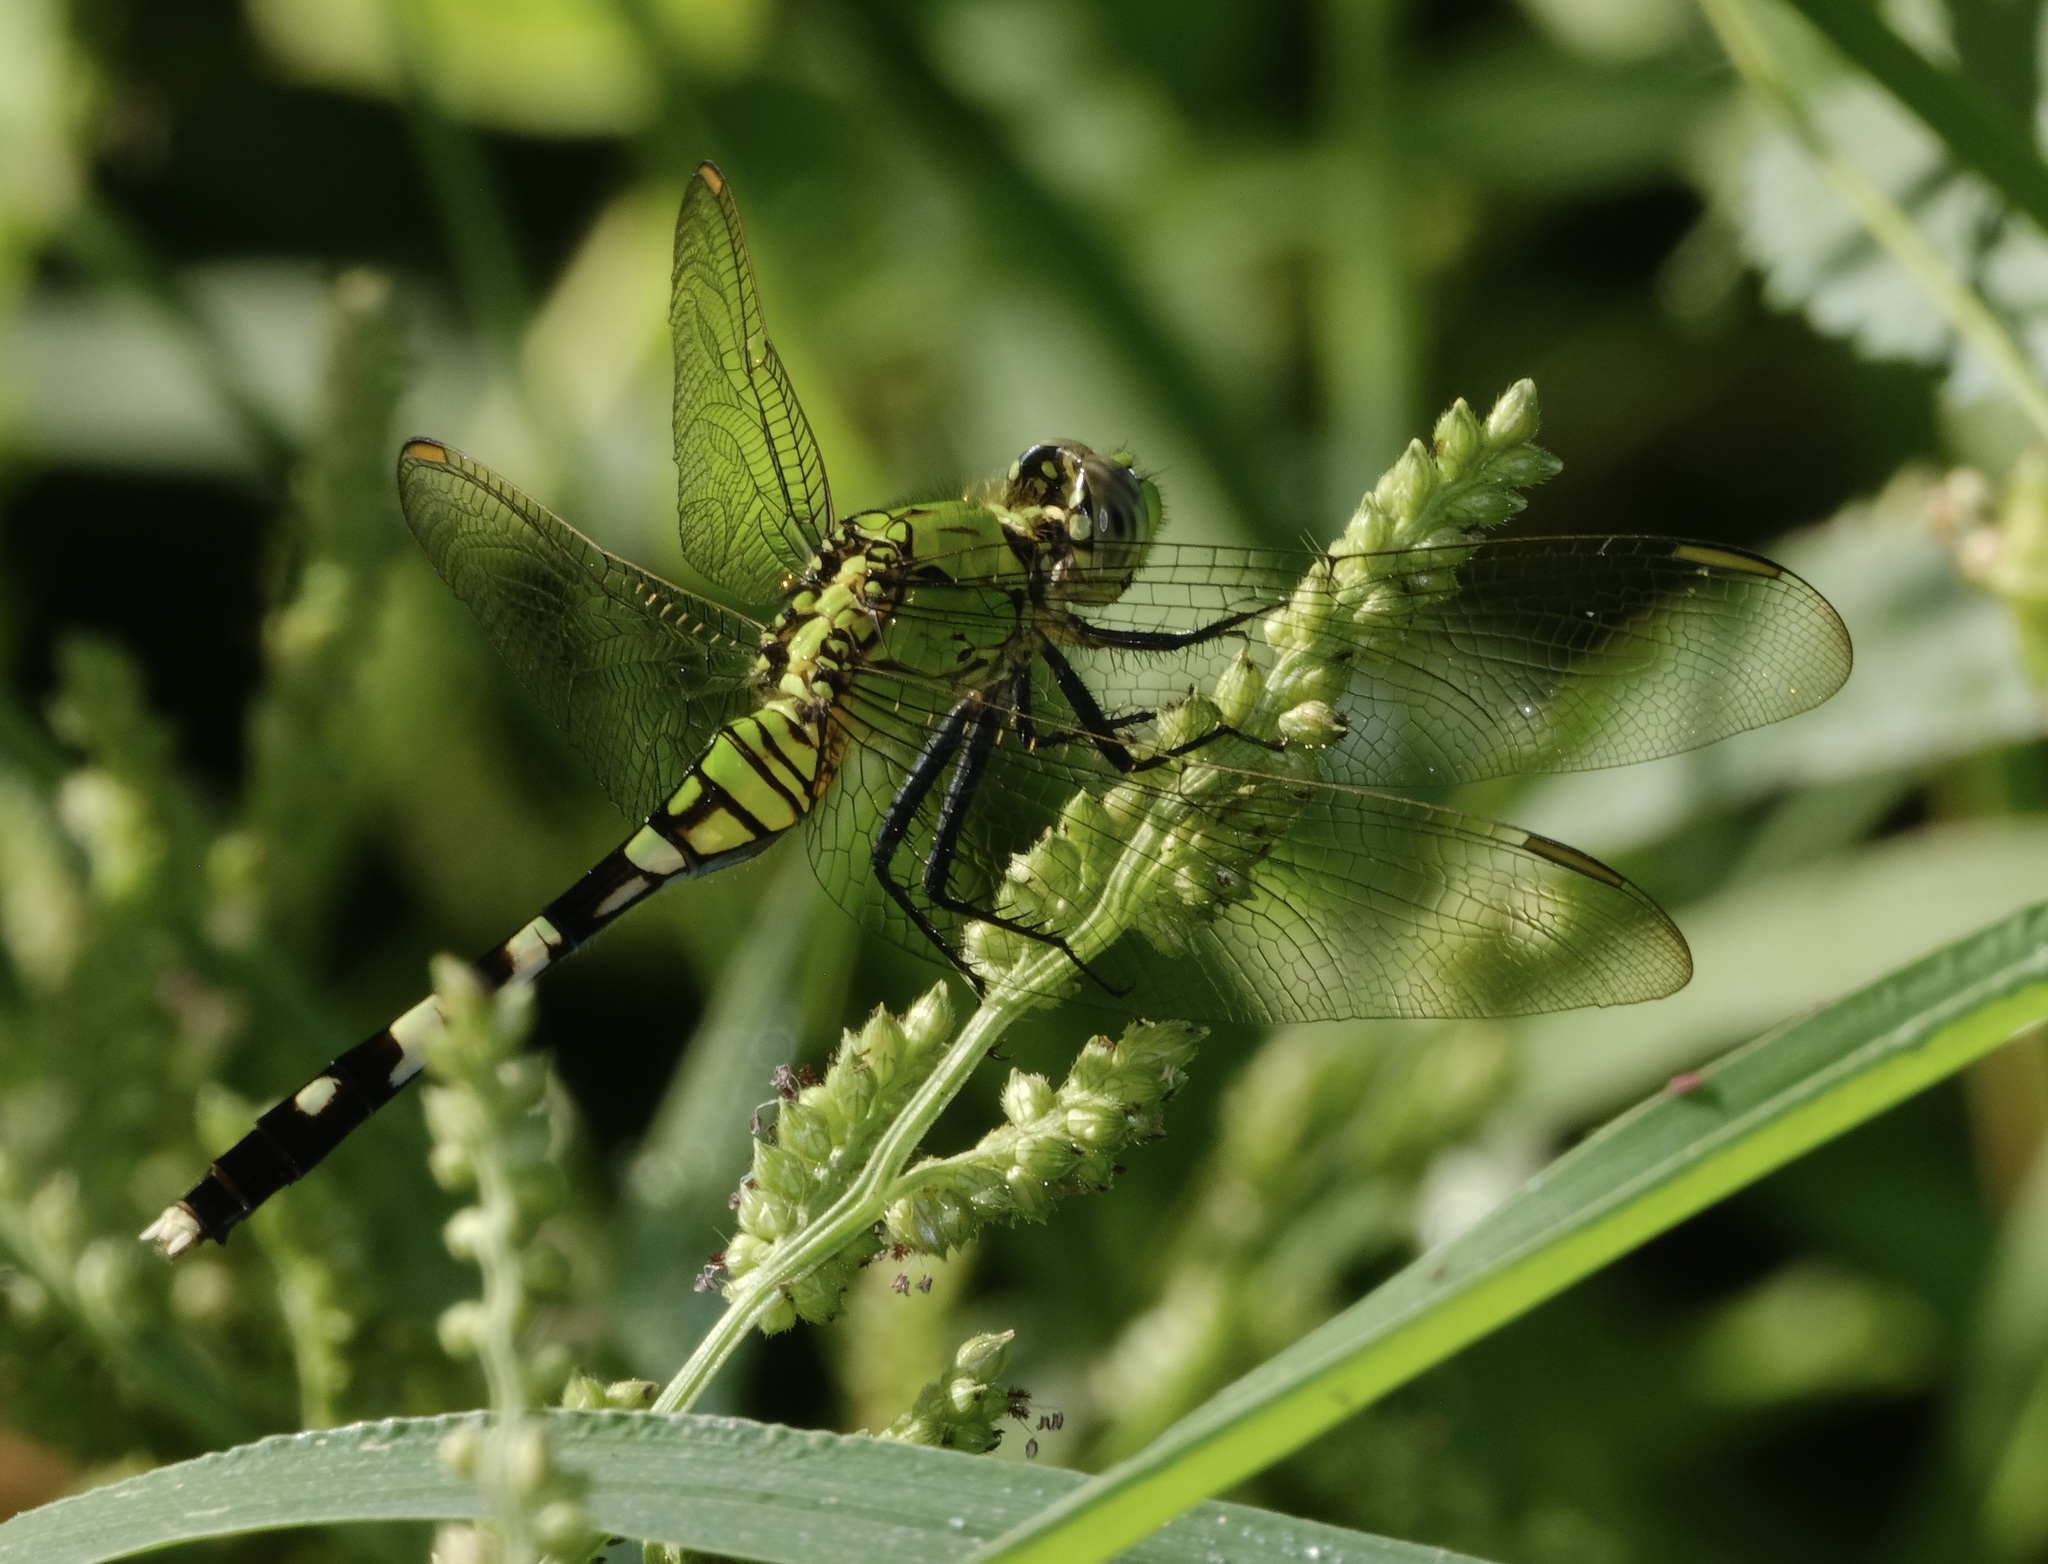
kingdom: Animalia
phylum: Arthropoda
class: Insecta
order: Odonata
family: Libellulidae
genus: Erythemis
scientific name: Erythemis simplicicollis
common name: Eastern pondhawk
